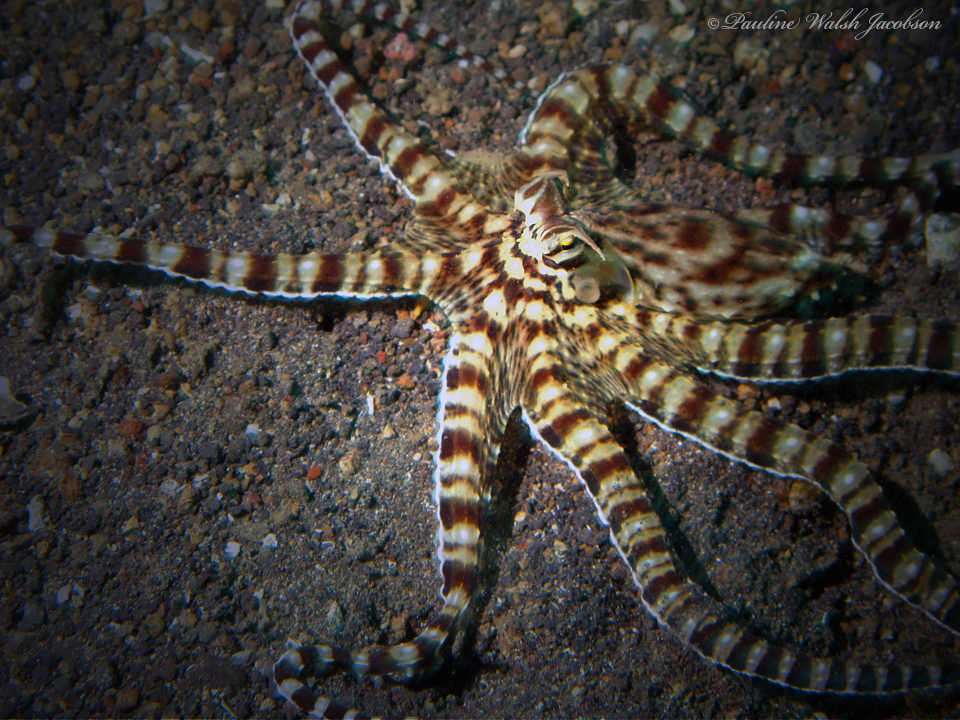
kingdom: Animalia
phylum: Mollusca
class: Cephalopoda
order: Octopoda
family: Octopodidae
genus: Thaumoctopus
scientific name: Thaumoctopus mimicus
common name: Mimic octopus
